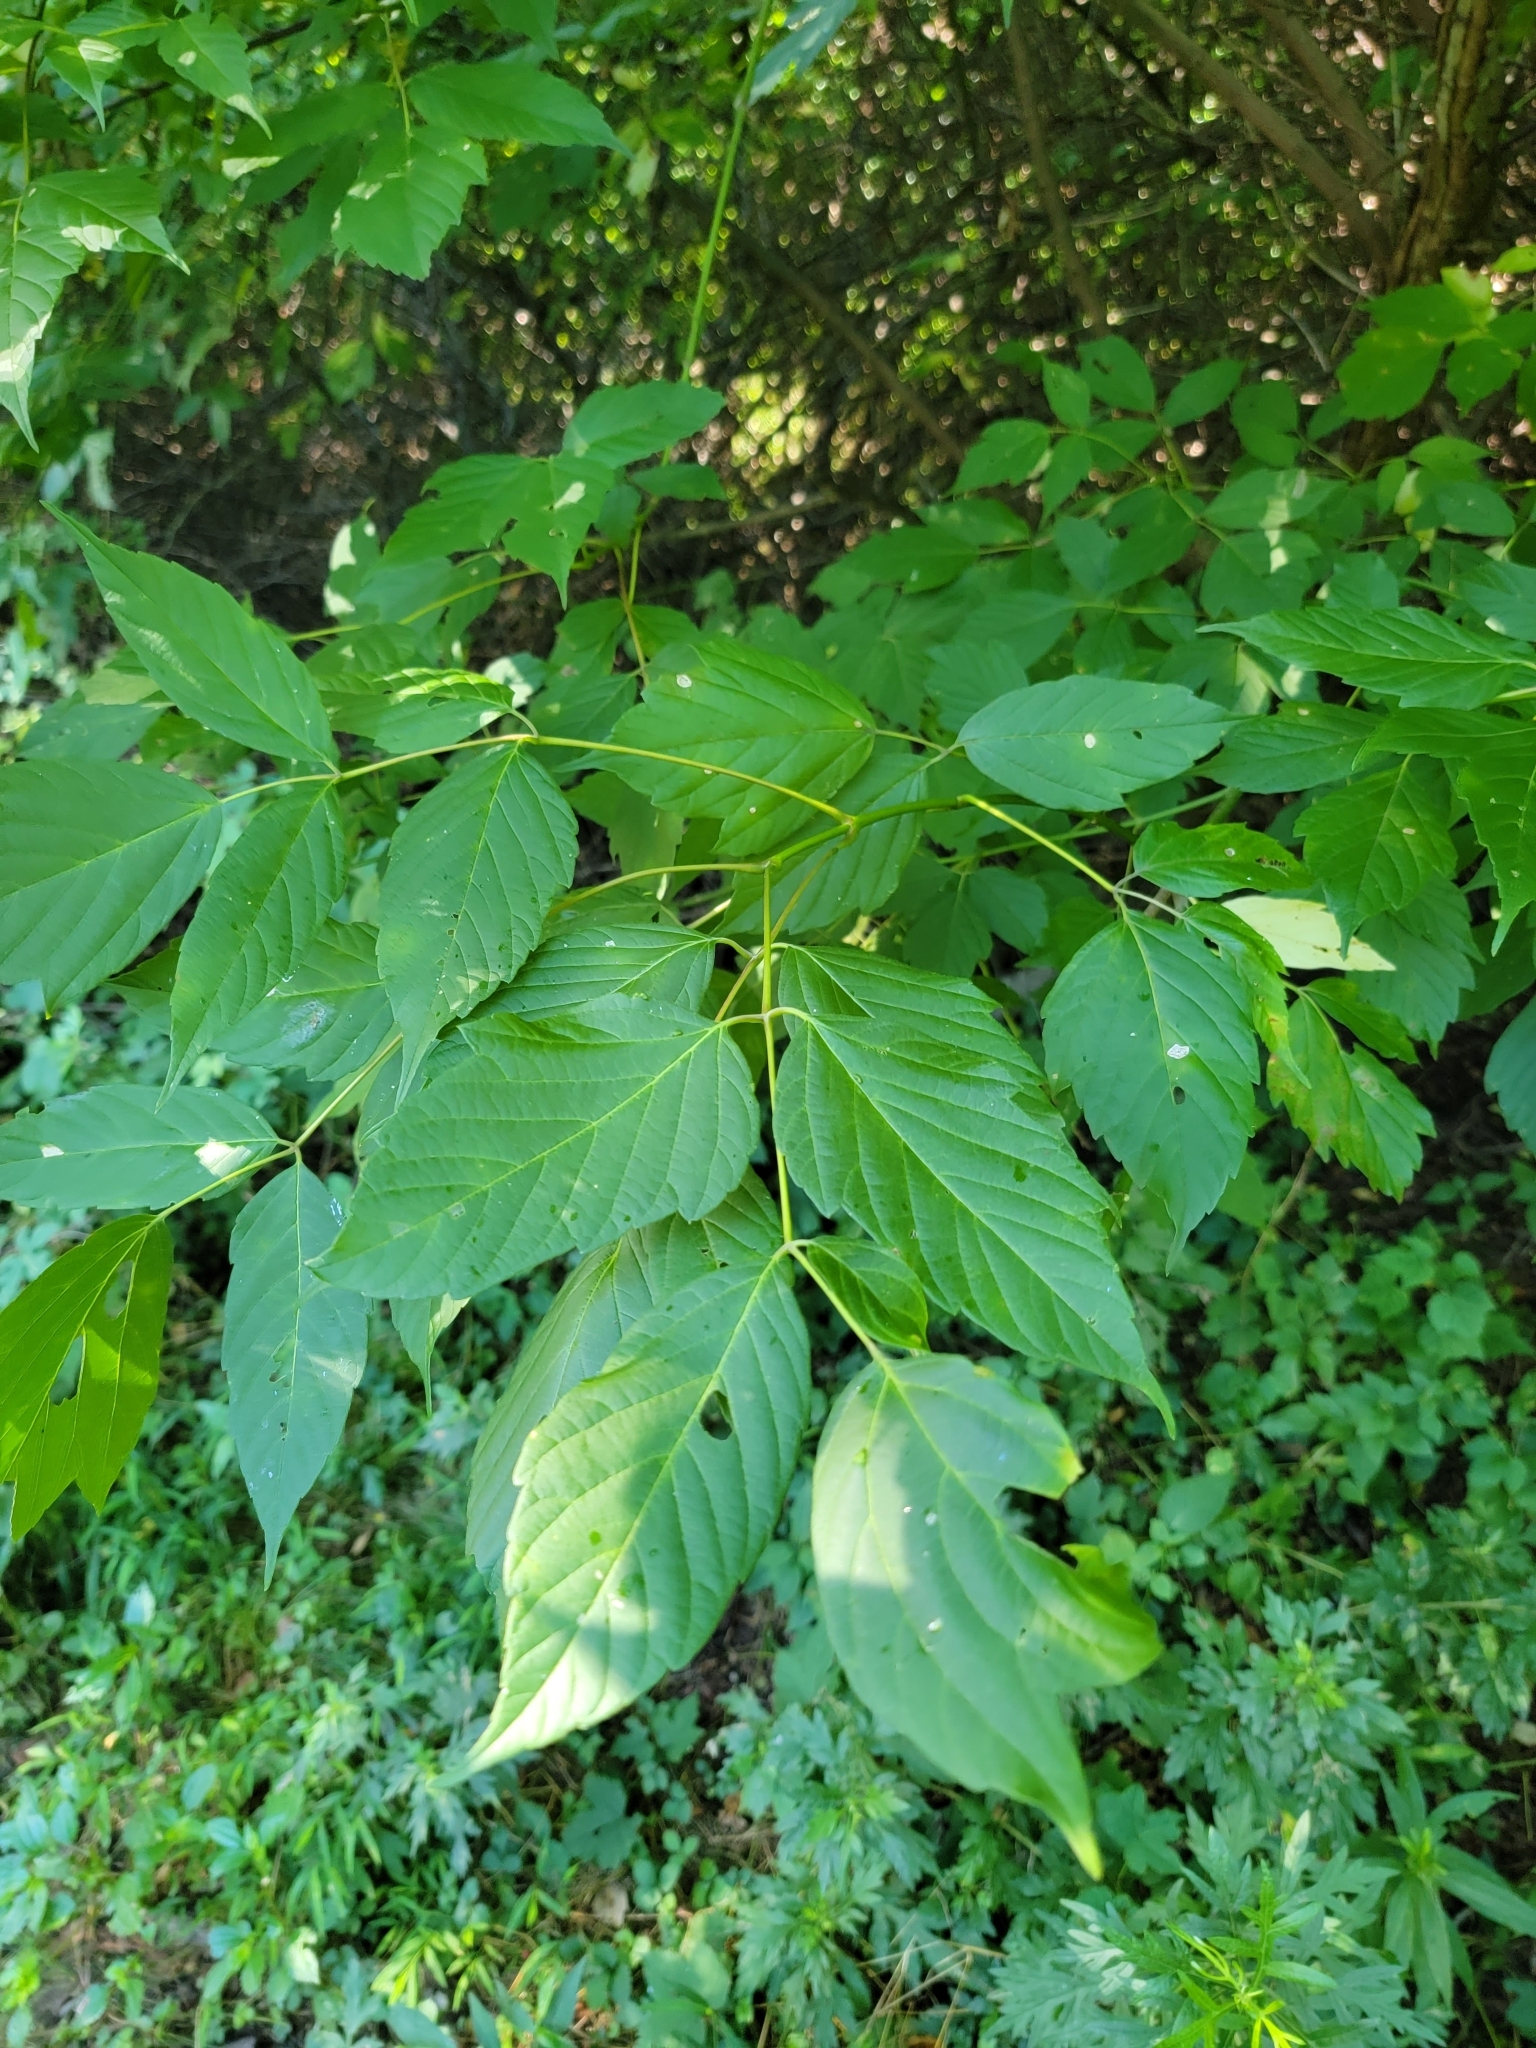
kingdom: Plantae
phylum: Tracheophyta
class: Magnoliopsida
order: Sapindales
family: Sapindaceae
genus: Acer
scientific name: Acer negundo
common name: Ashleaf maple
